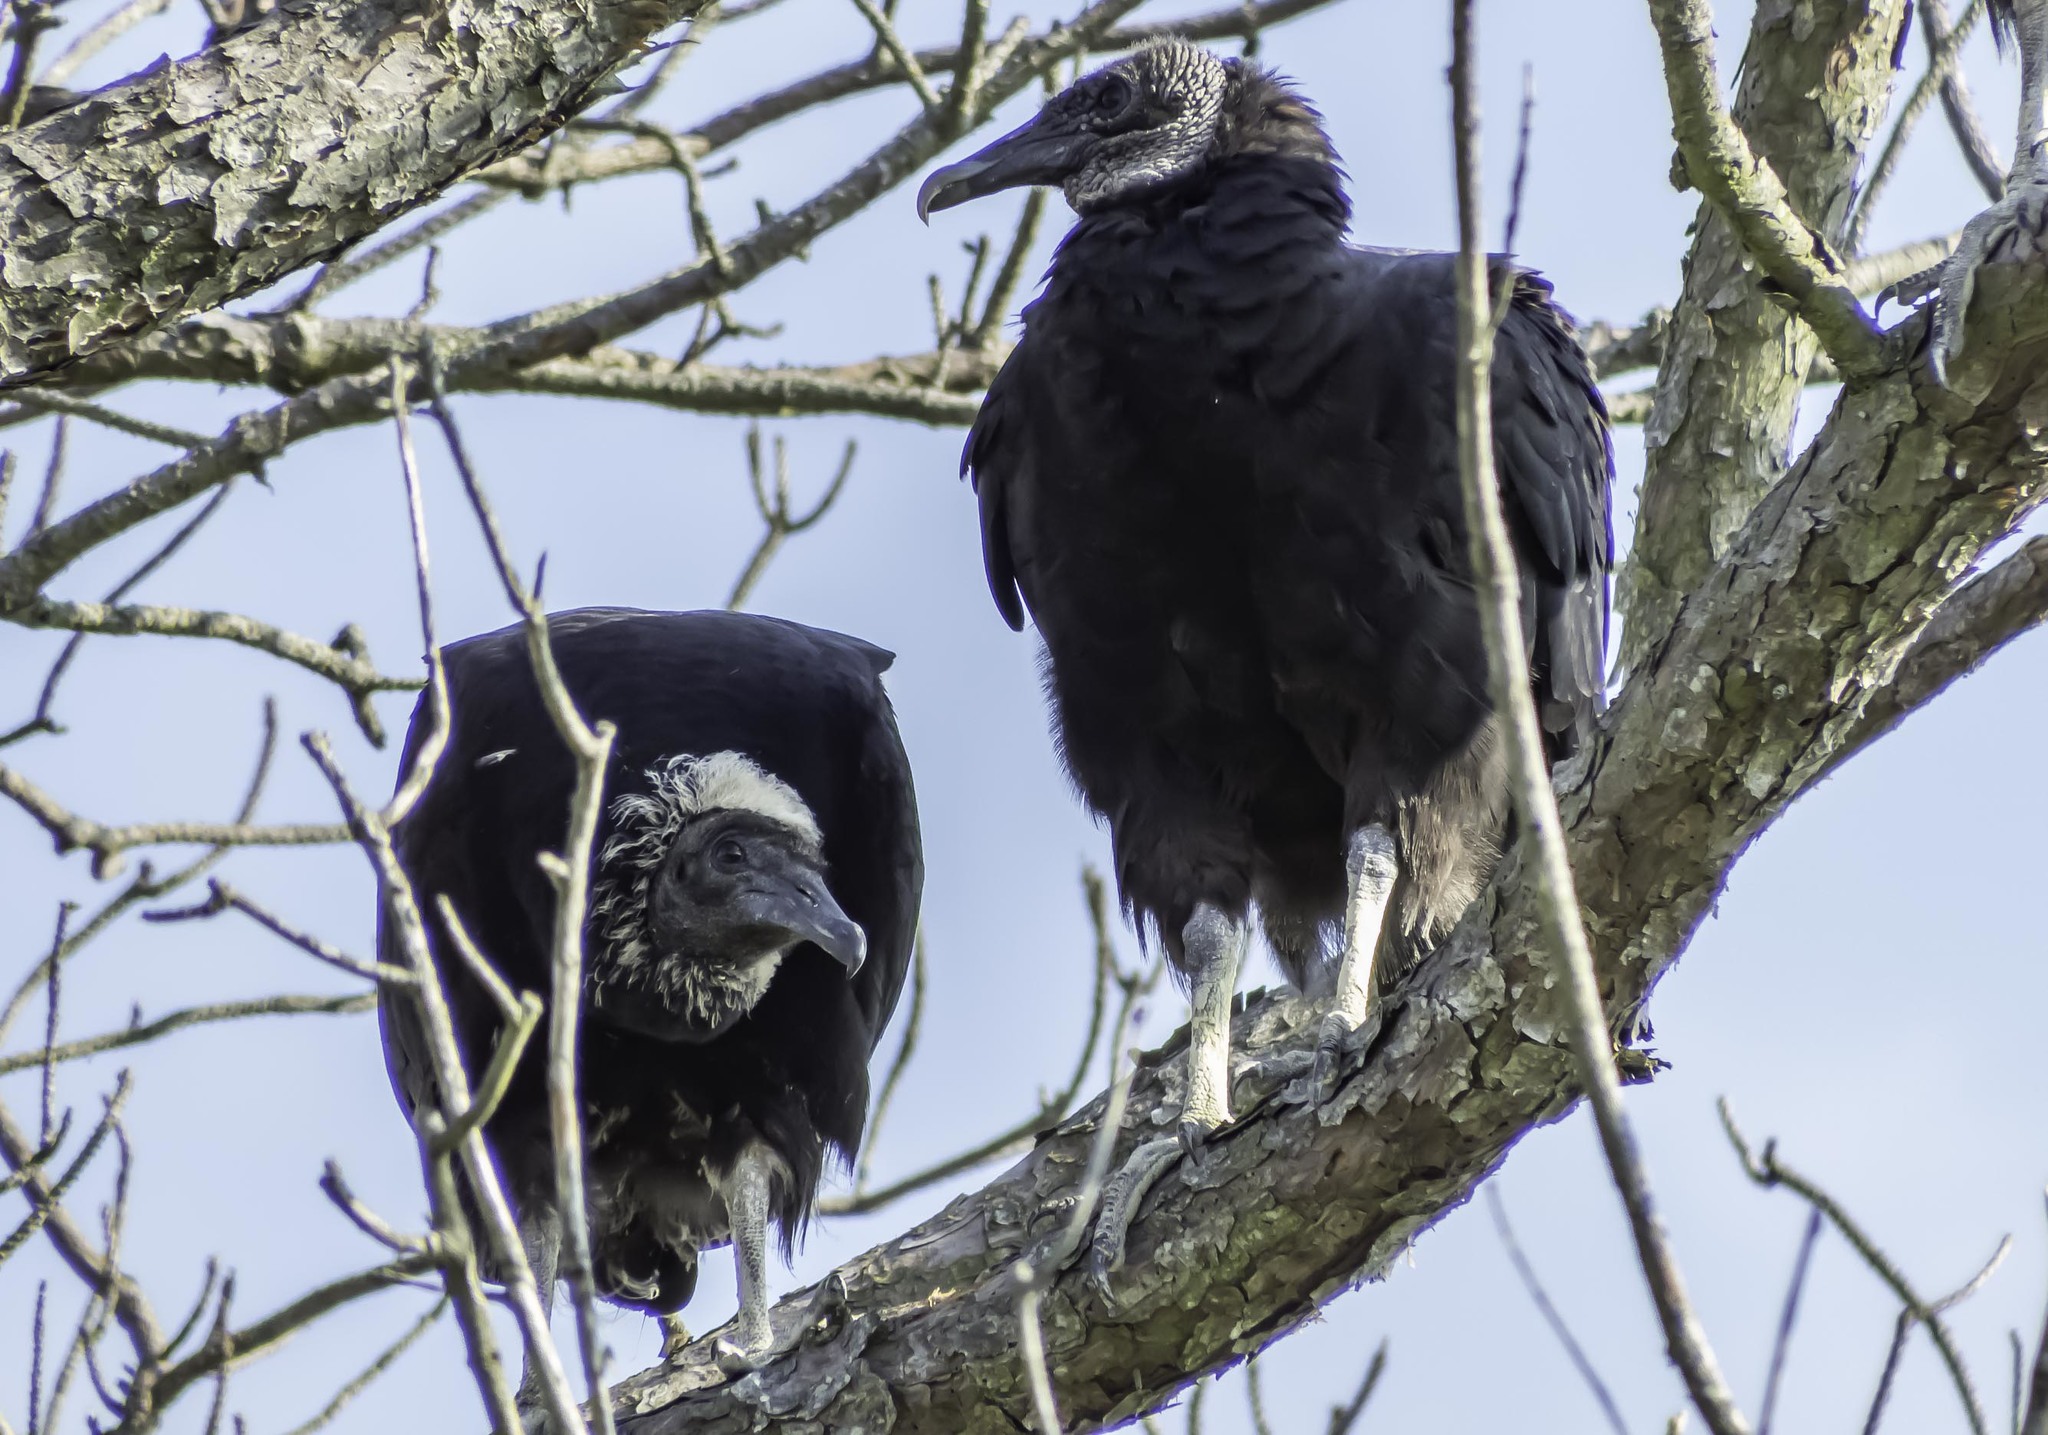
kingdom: Animalia
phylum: Chordata
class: Aves
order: Accipitriformes
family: Cathartidae
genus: Coragyps
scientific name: Coragyps atratus
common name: Black vulture
